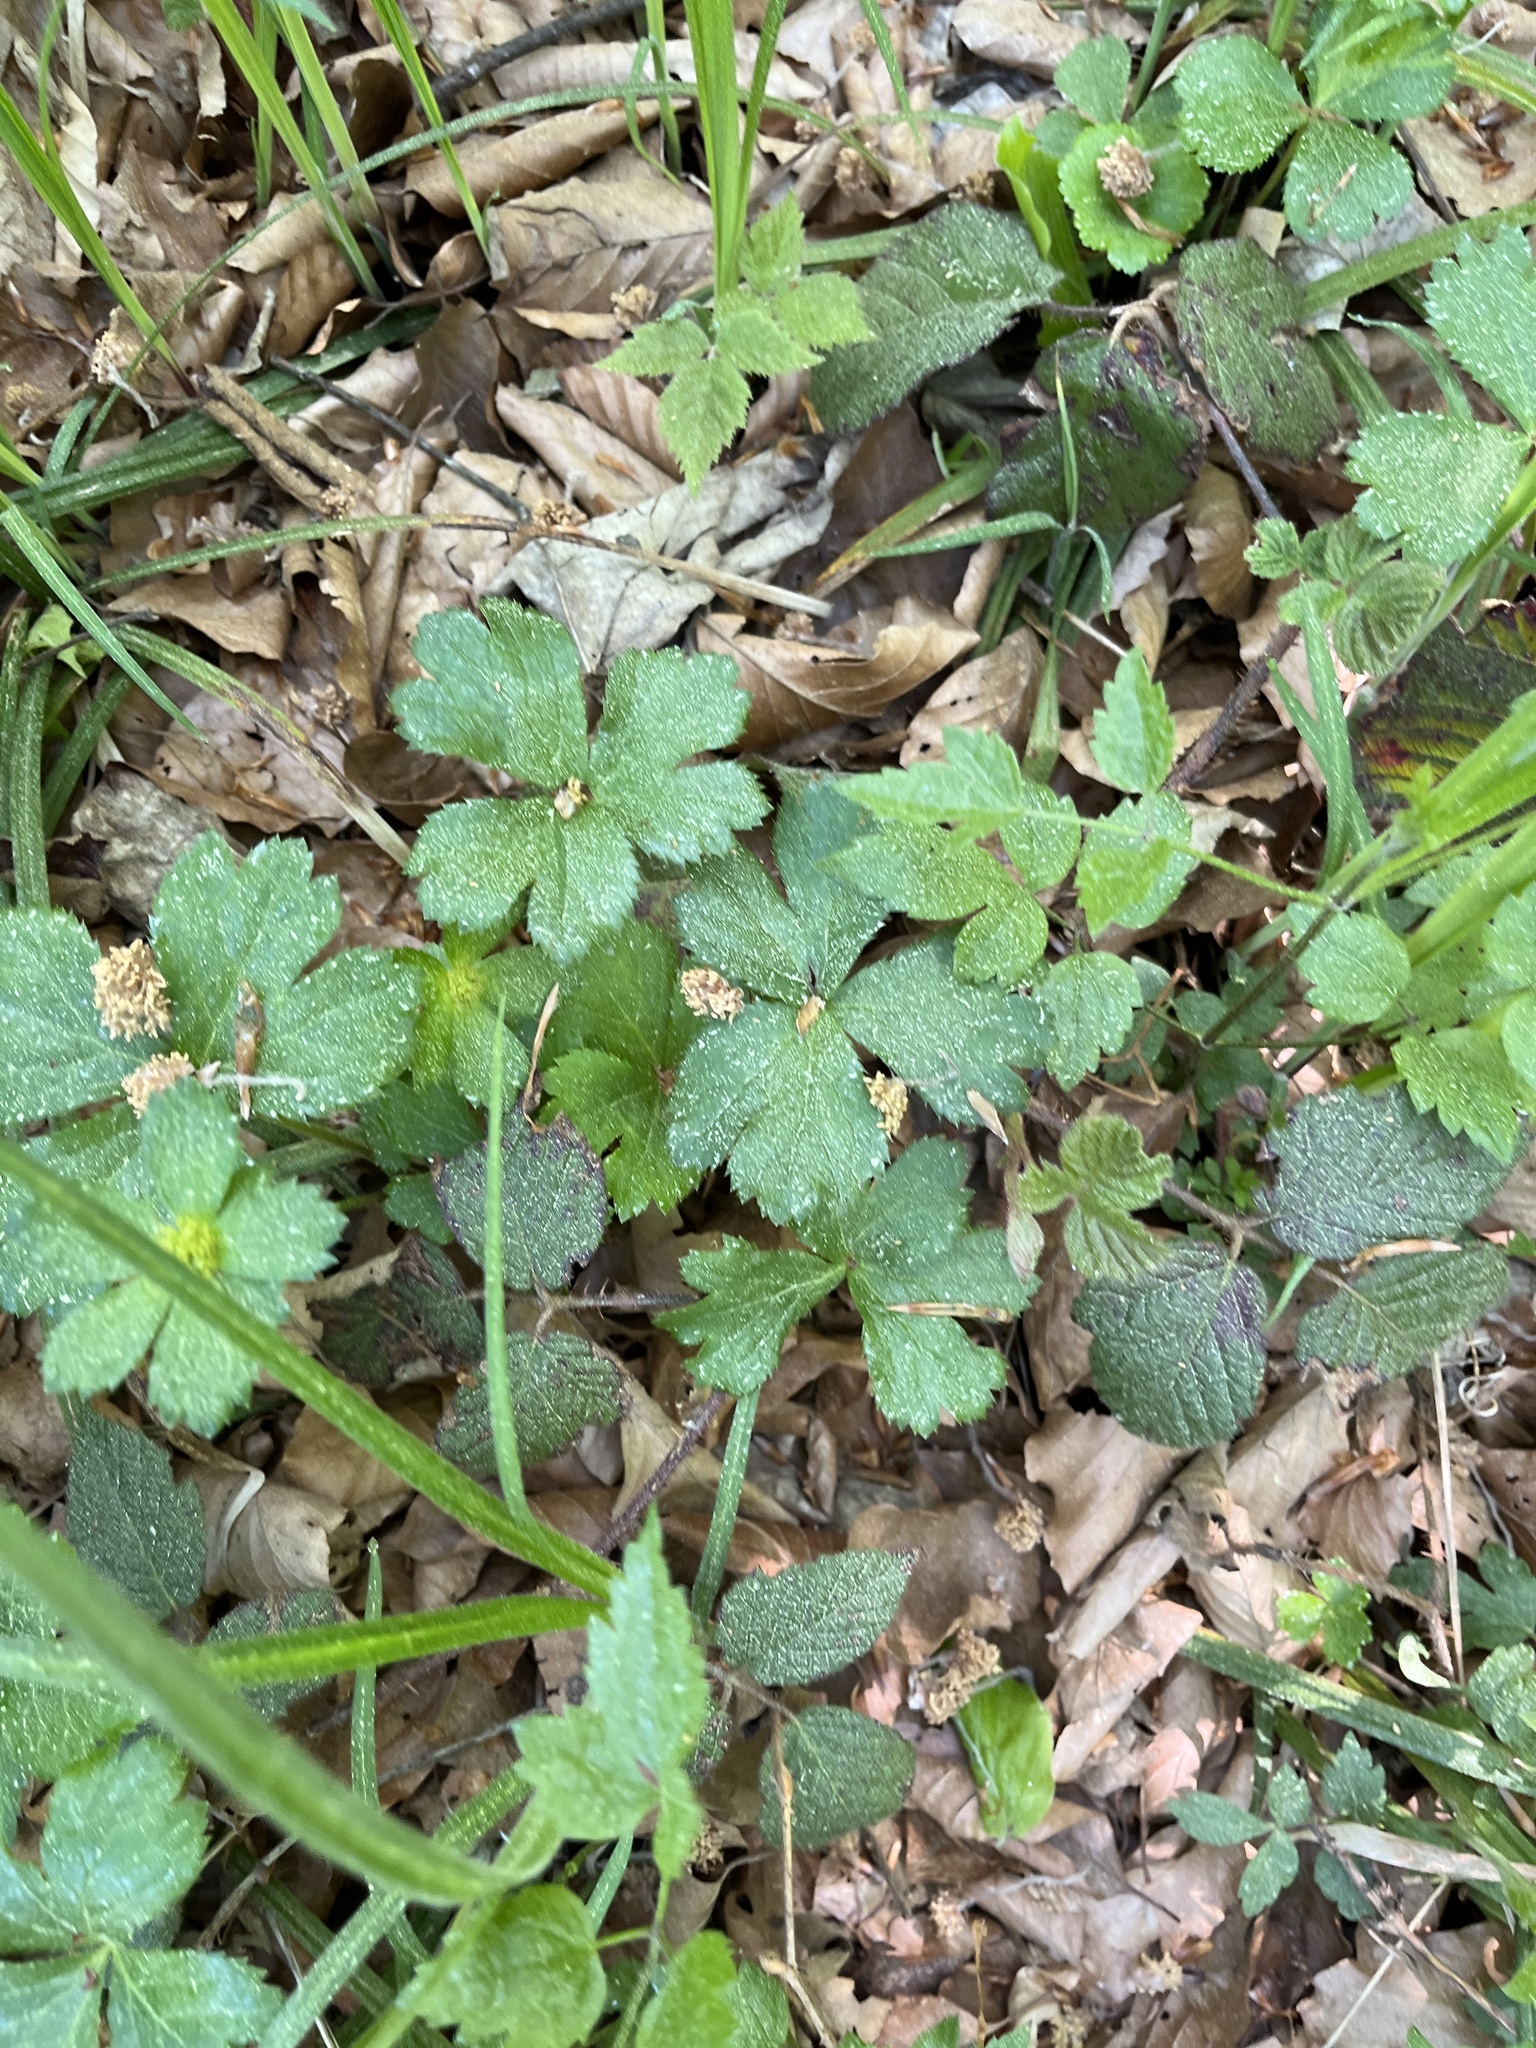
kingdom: Plantae
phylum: Tracheophyta
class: Magnoliopsida
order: Apiales
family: Apiaceae
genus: Sanicula
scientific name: Sanicula epipactis
